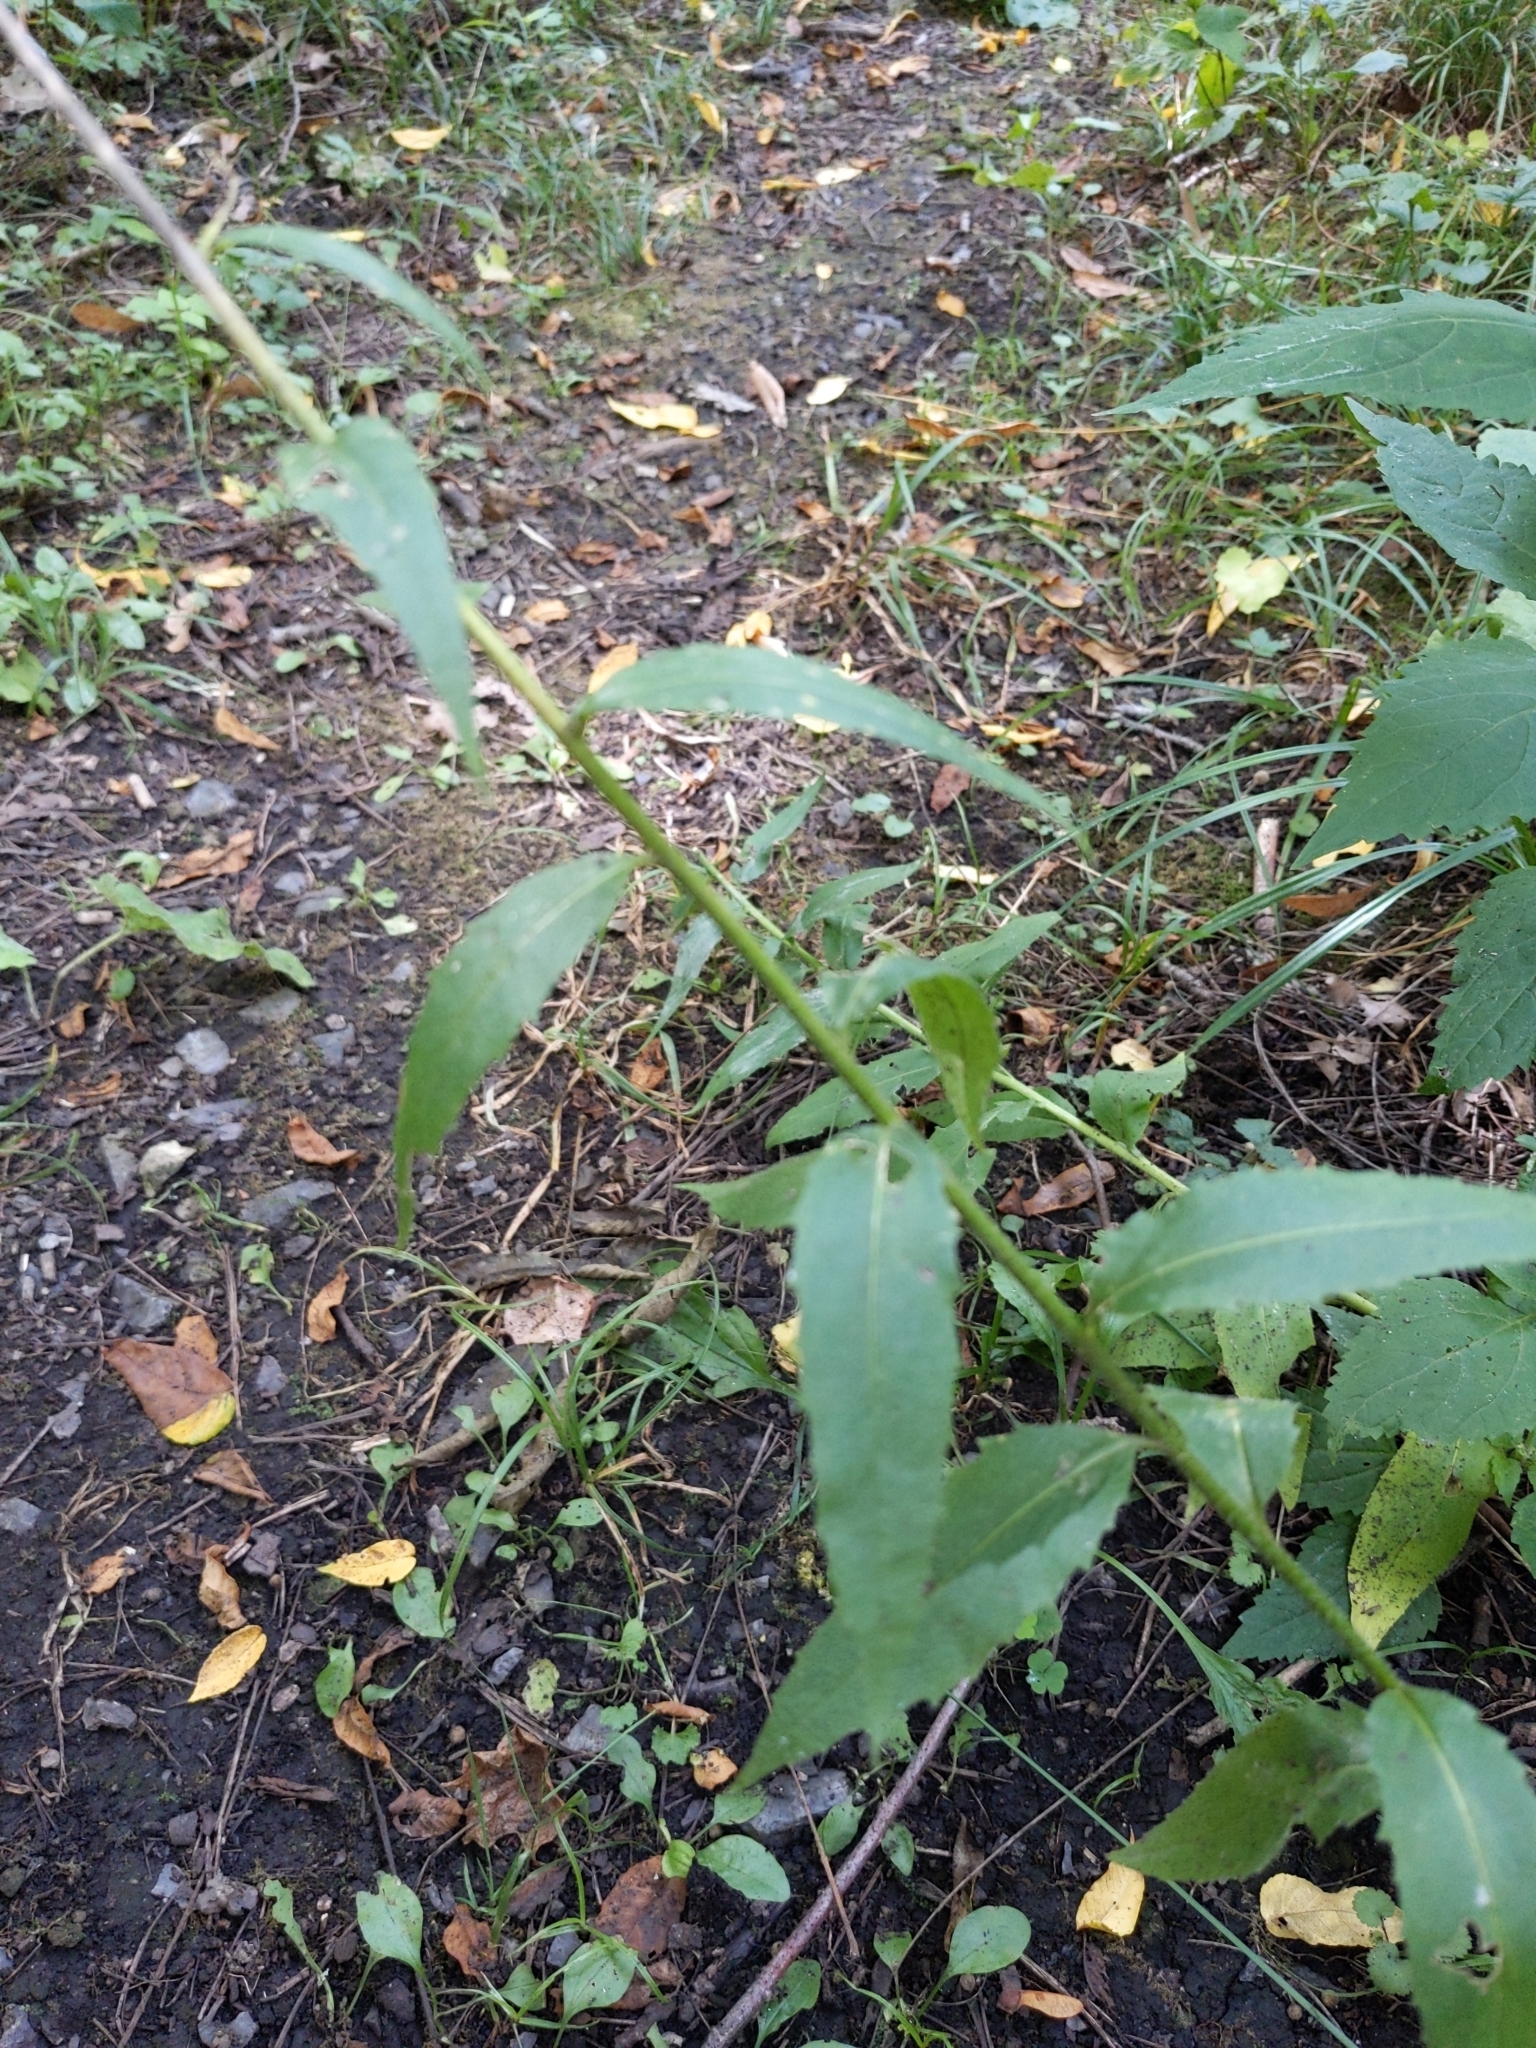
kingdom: Plantae
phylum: Tracheophyta
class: Magnoliopsida
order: Brassicales
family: Brassicaceae
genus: Hesperis
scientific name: Hesperis matronalis
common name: Dame's-violet
